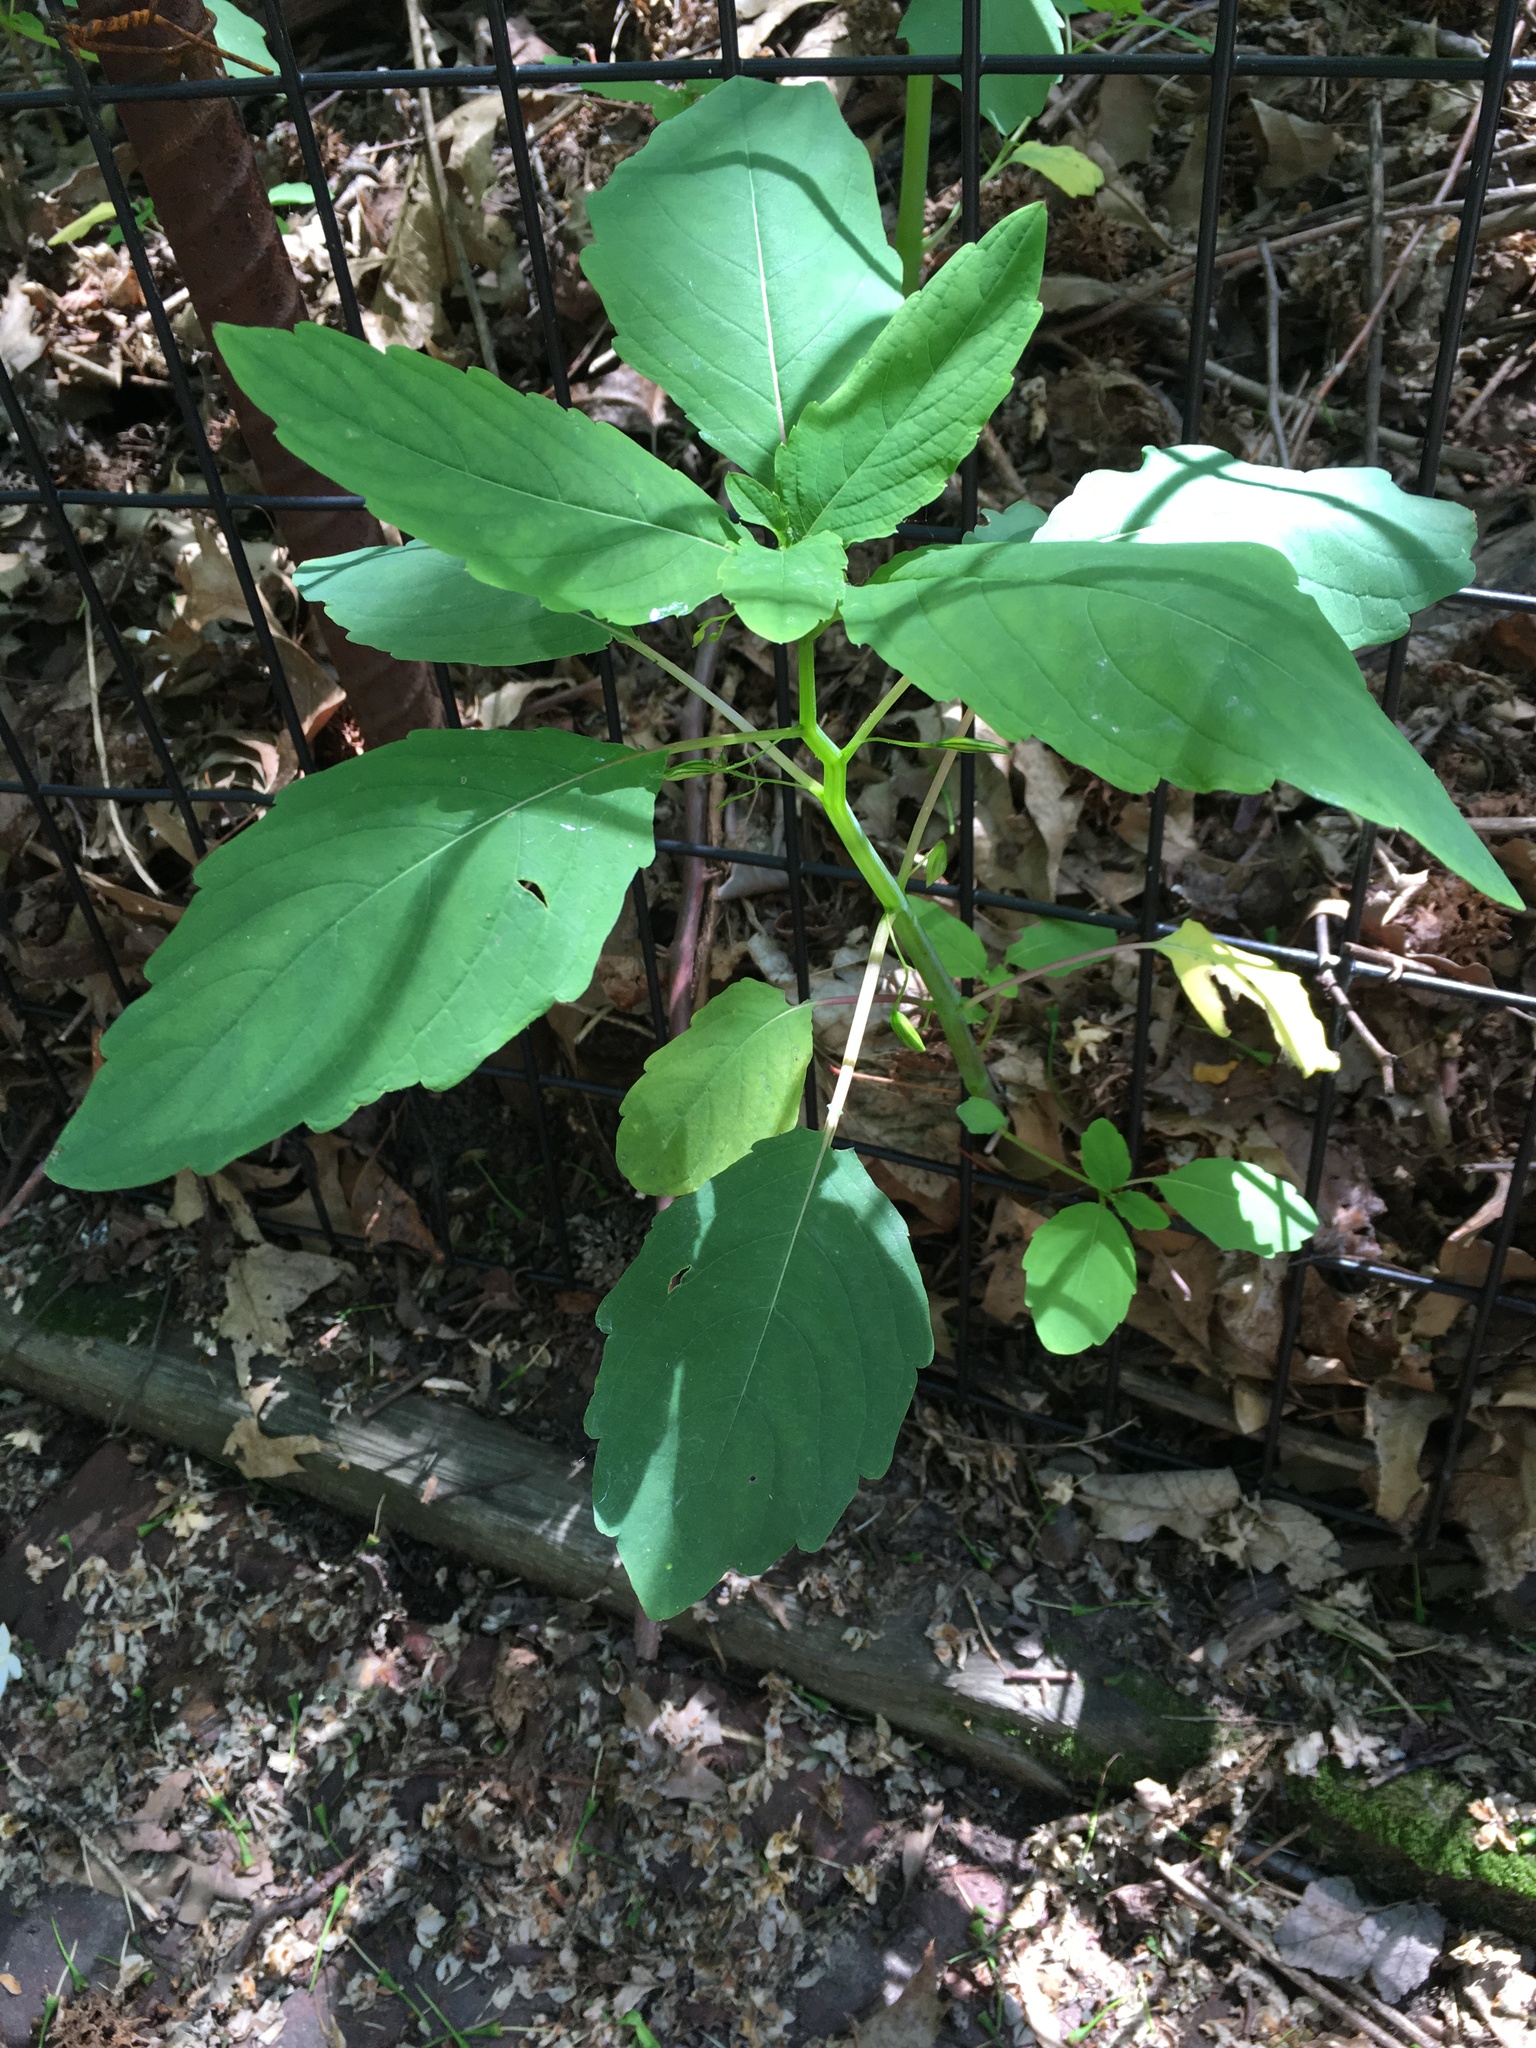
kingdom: Plantae
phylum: Tracheophyta
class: Magnoliopsida
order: Ericales
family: Balsaminaceae
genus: Impatiens
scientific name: Impatiens capensis
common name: Orange balsam
